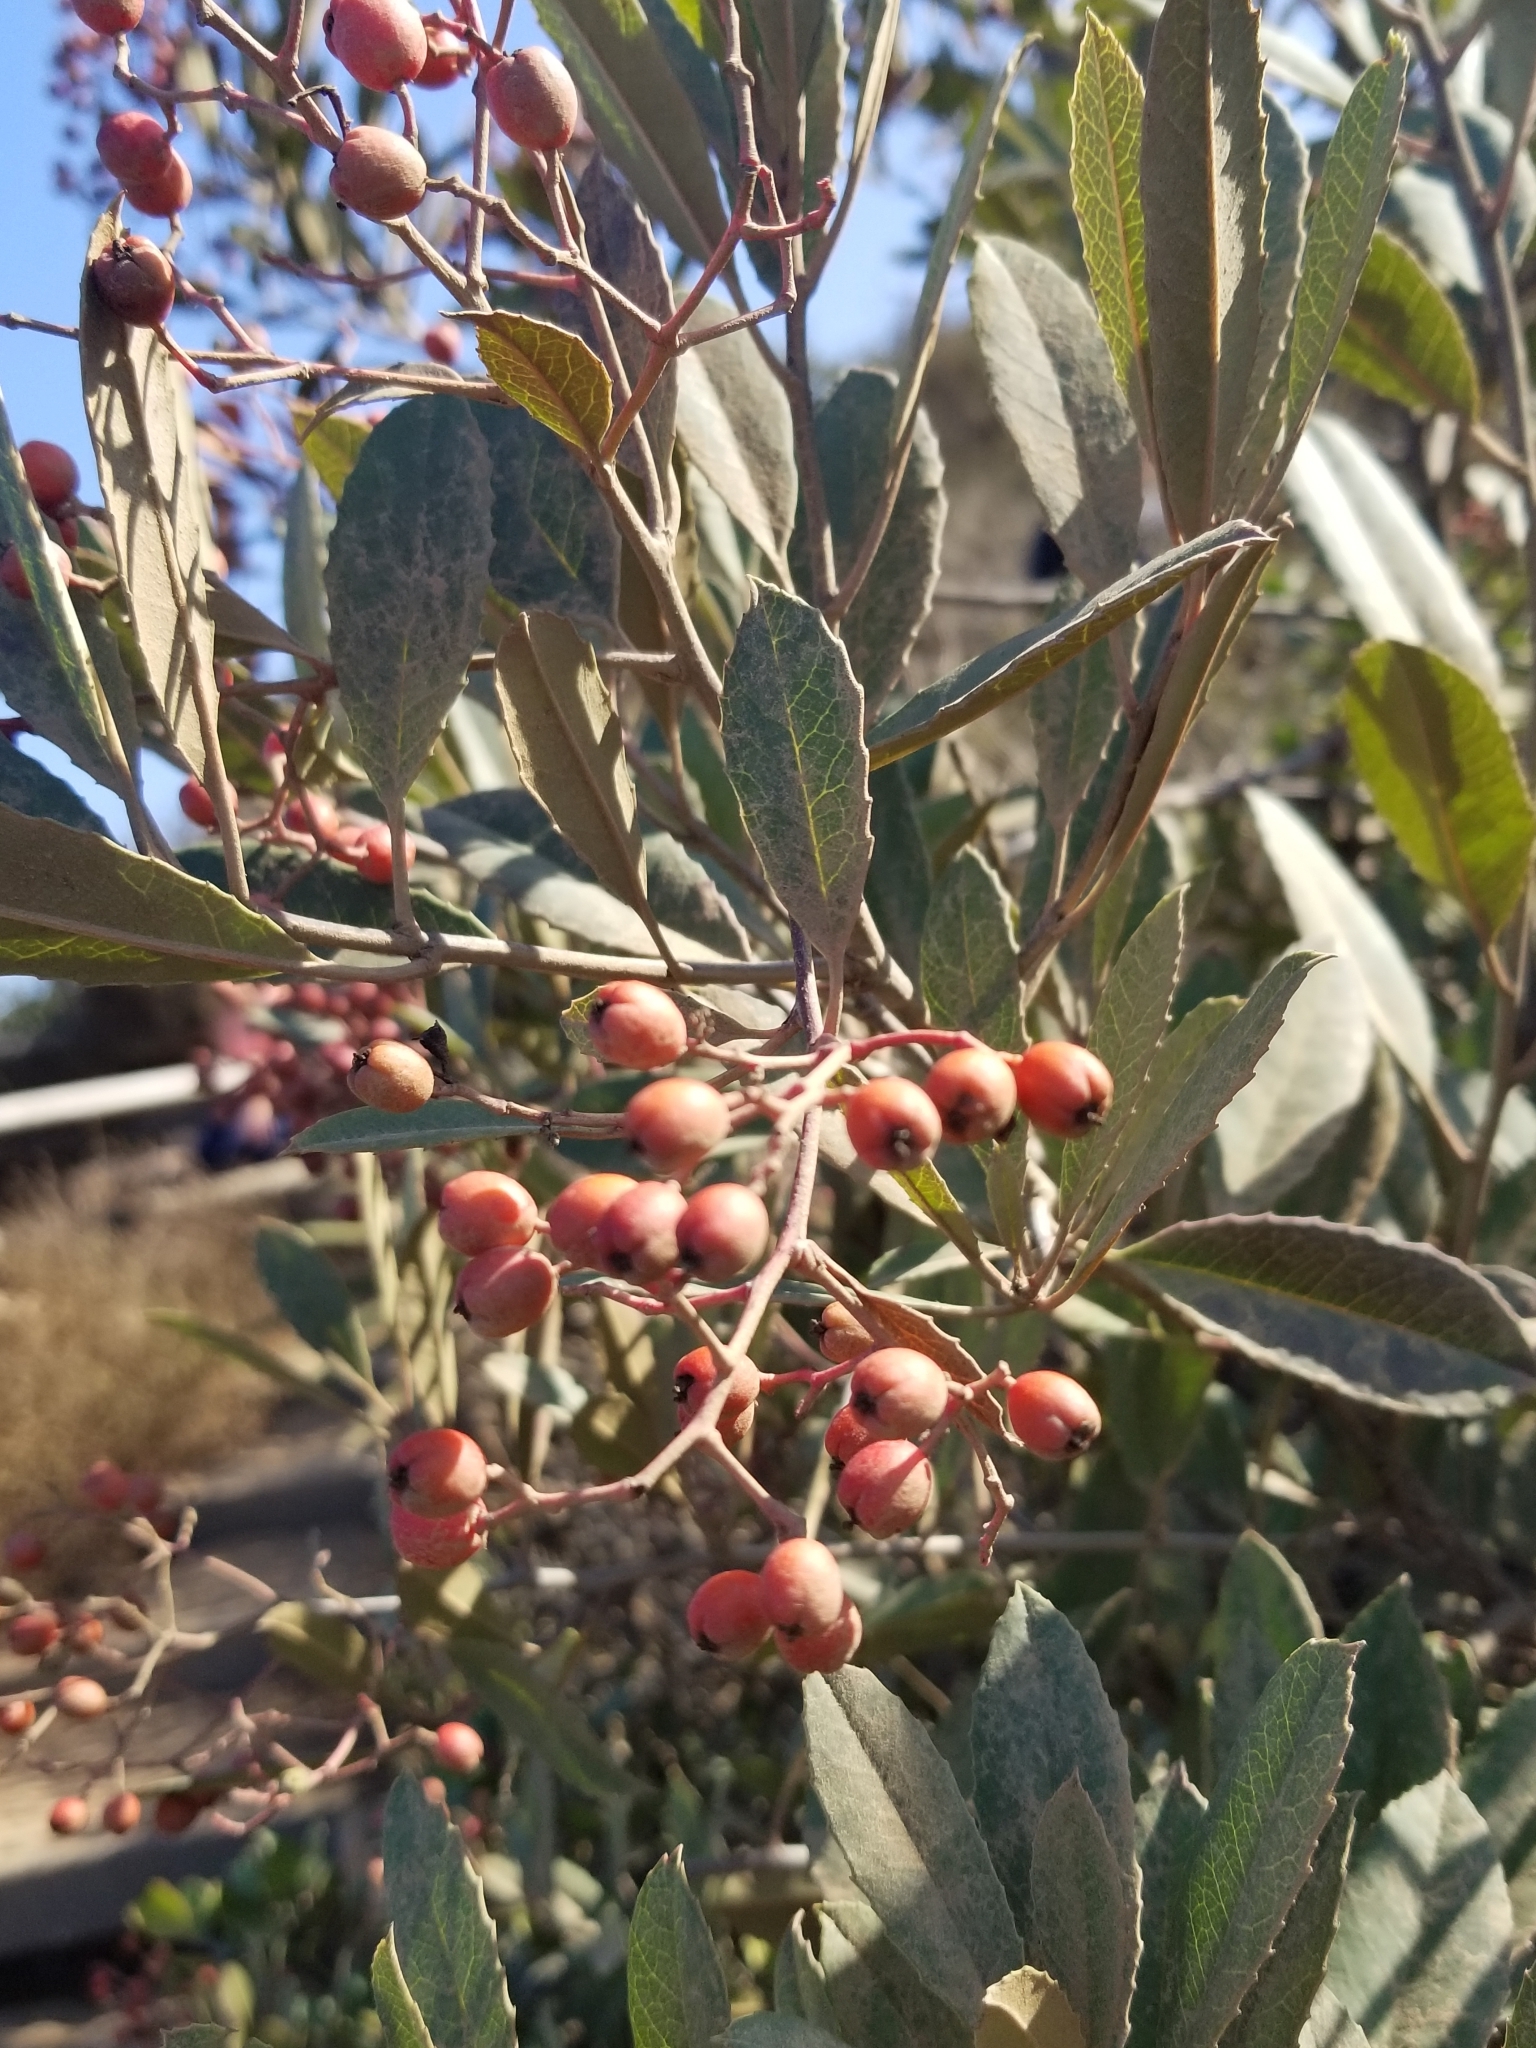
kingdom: Plantae
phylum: Tracheophyta
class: Magnoliopsida
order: Rosales
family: Rosaceae
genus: Heteromeles
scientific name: Heteromeles arbutifolia
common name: California-holly
